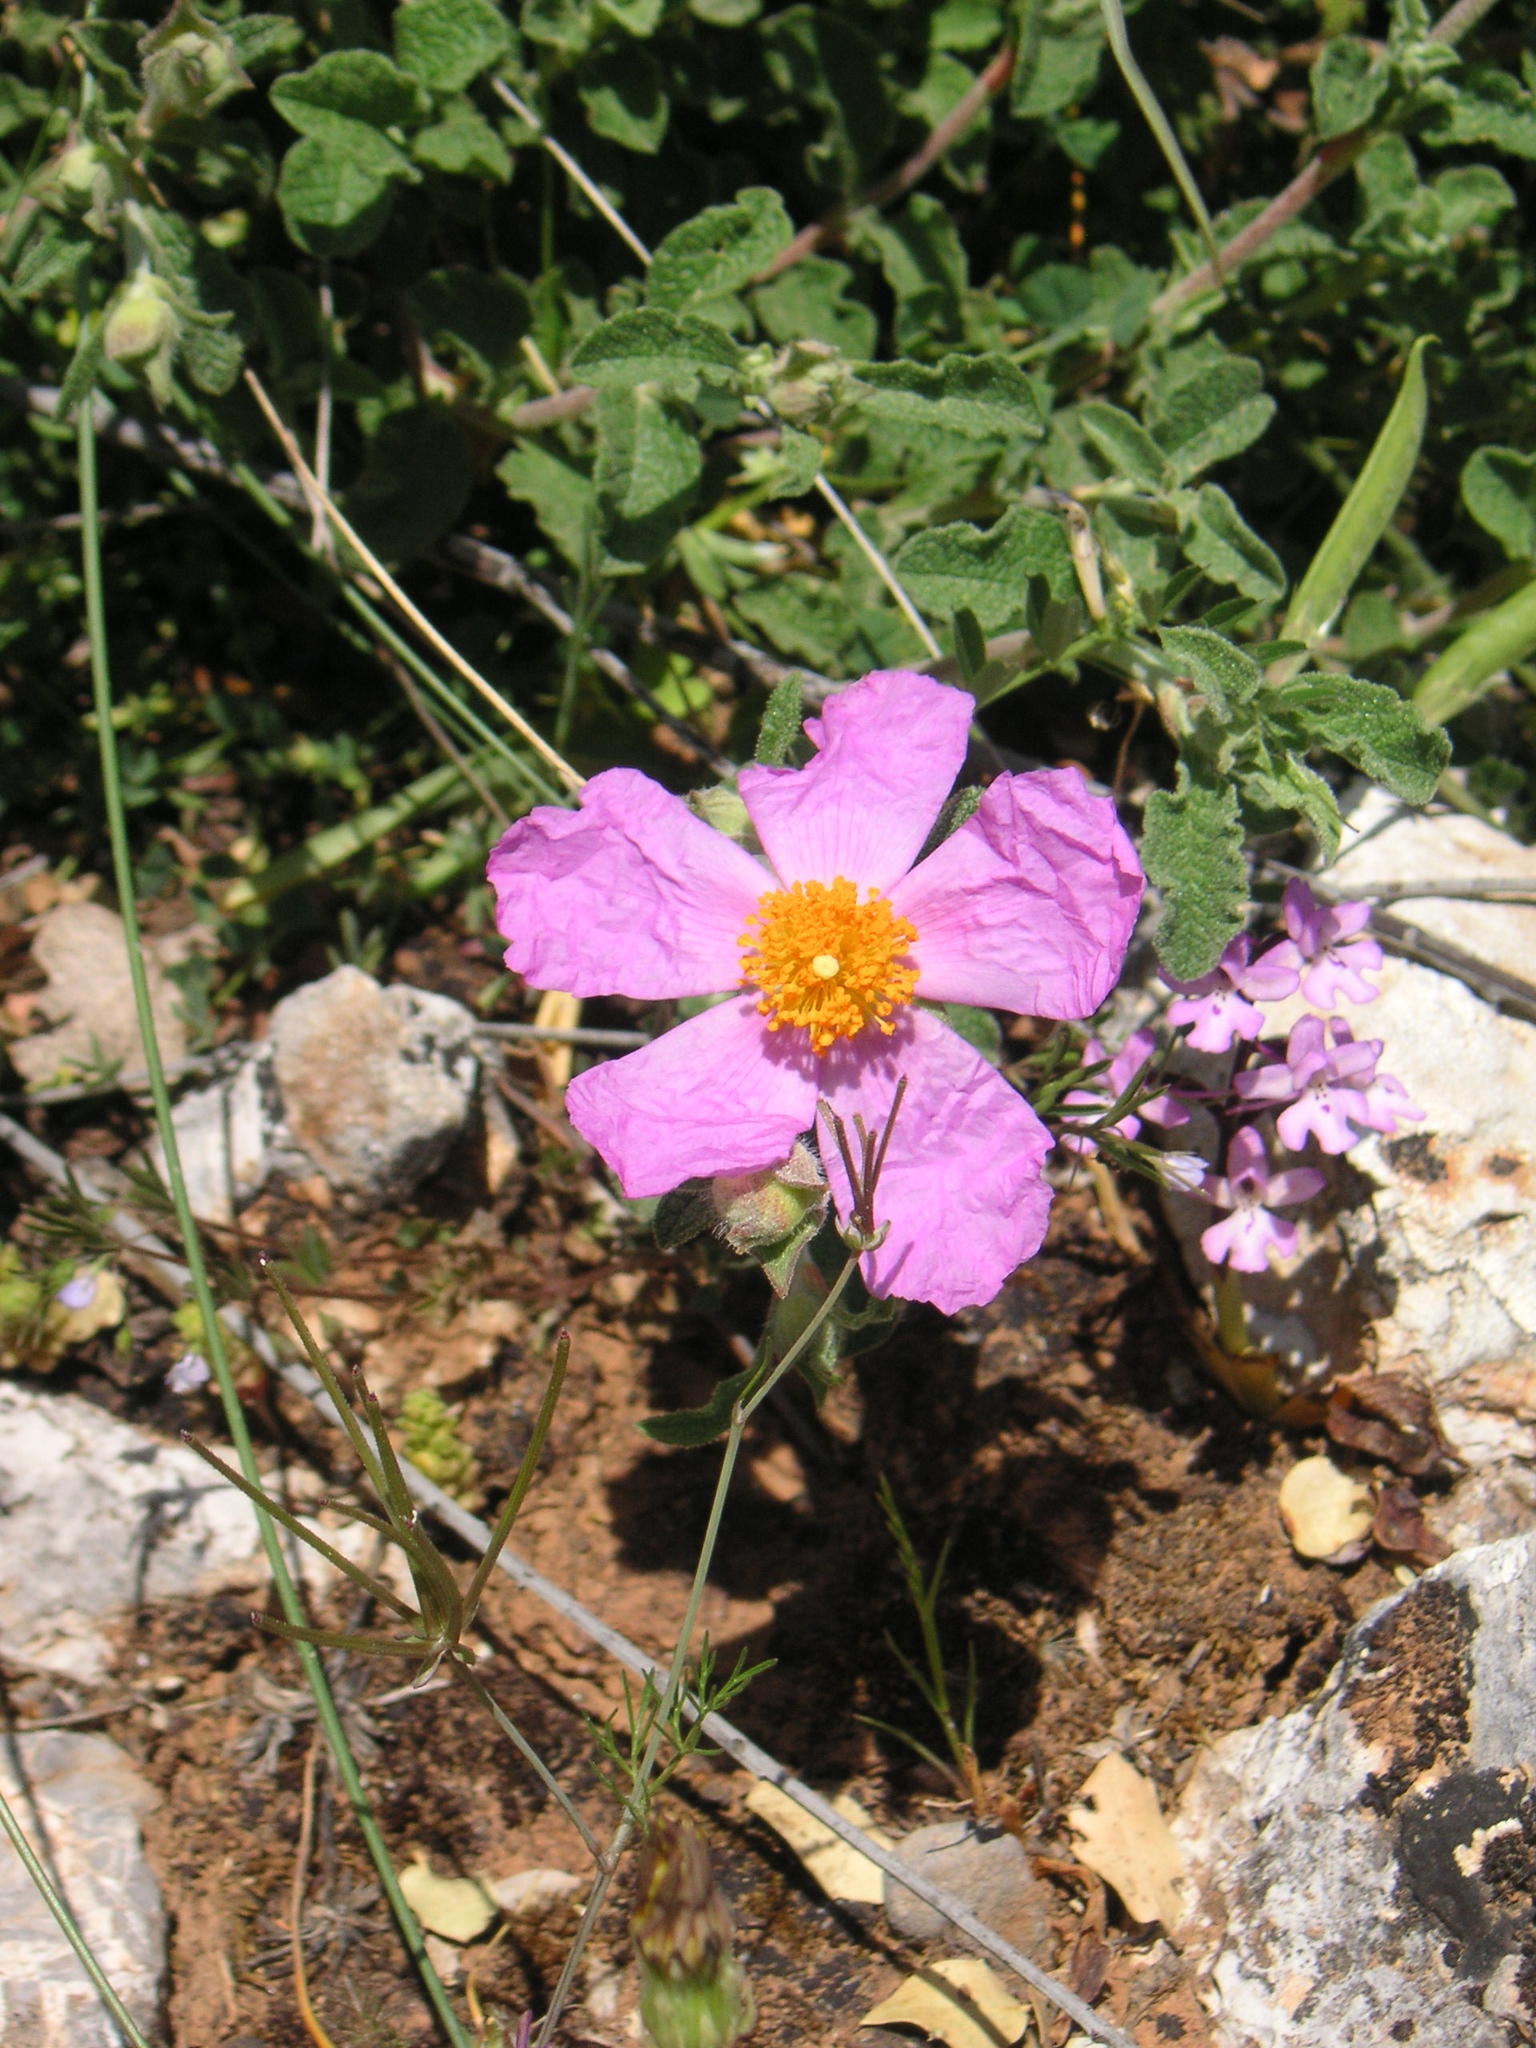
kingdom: Plantae
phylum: Tracheophyta
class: Magnoliopsida
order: Malvales
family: Cistaceae
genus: Cistus
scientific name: Cistus creticus
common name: Cretan rockrose
